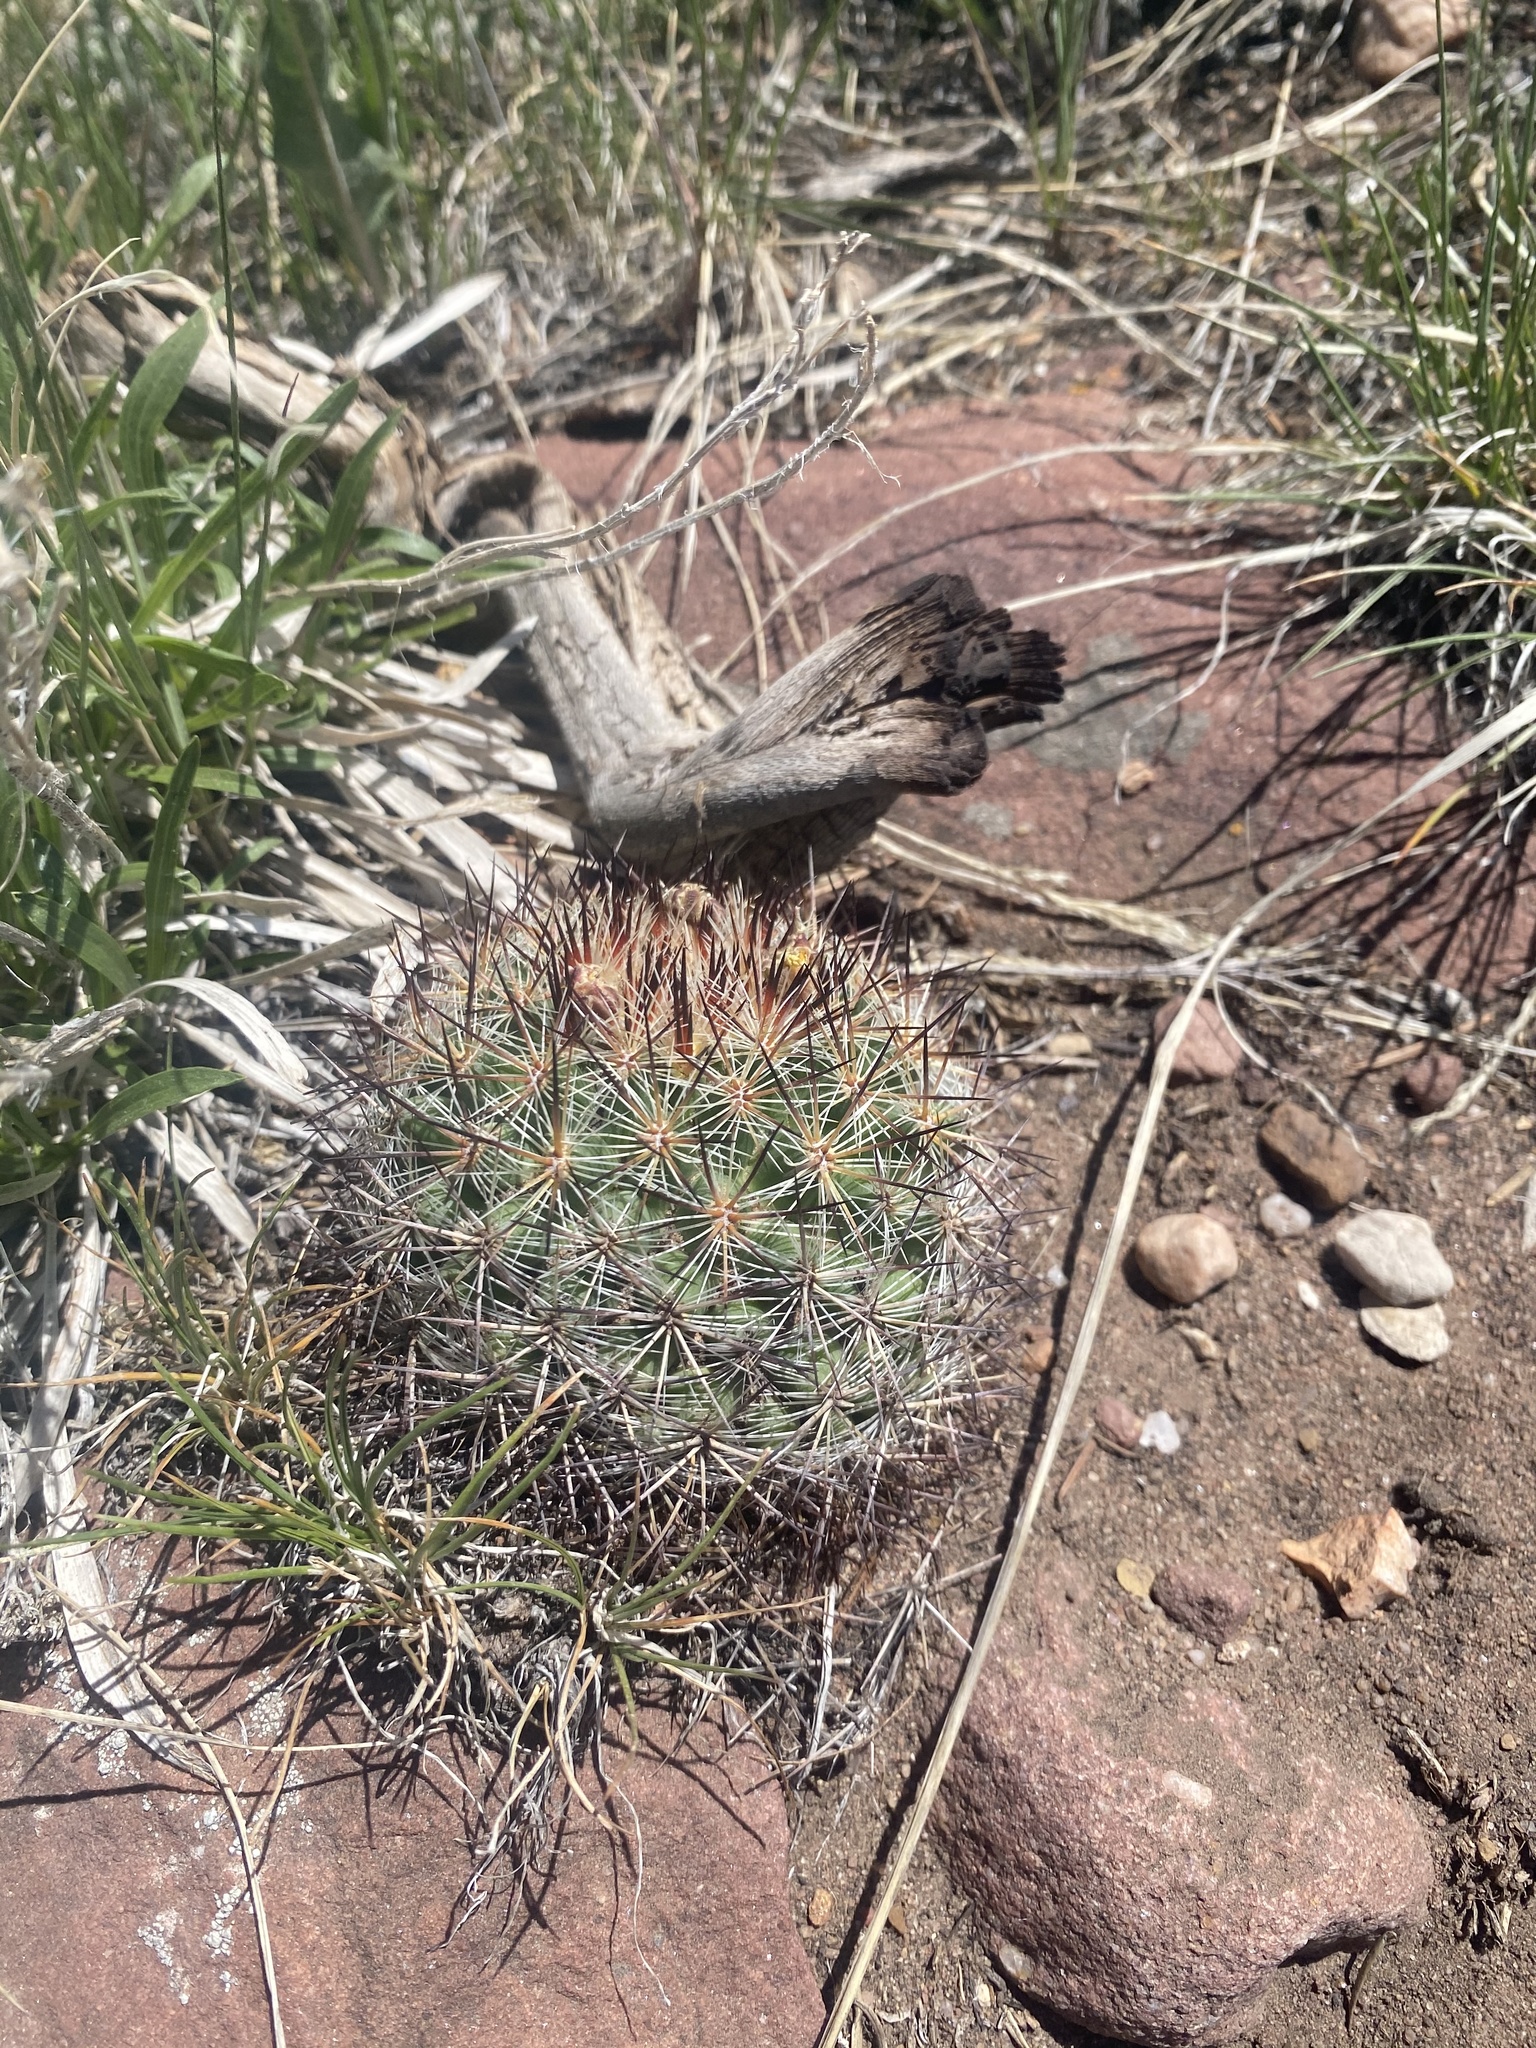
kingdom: Plantae
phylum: Tracheophyta
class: Magnoliopsida
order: Caryophyllales
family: Cactaceae
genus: Pediocactus
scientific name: Pediocactus simpsonii
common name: Simpson's hedgehog cactus
